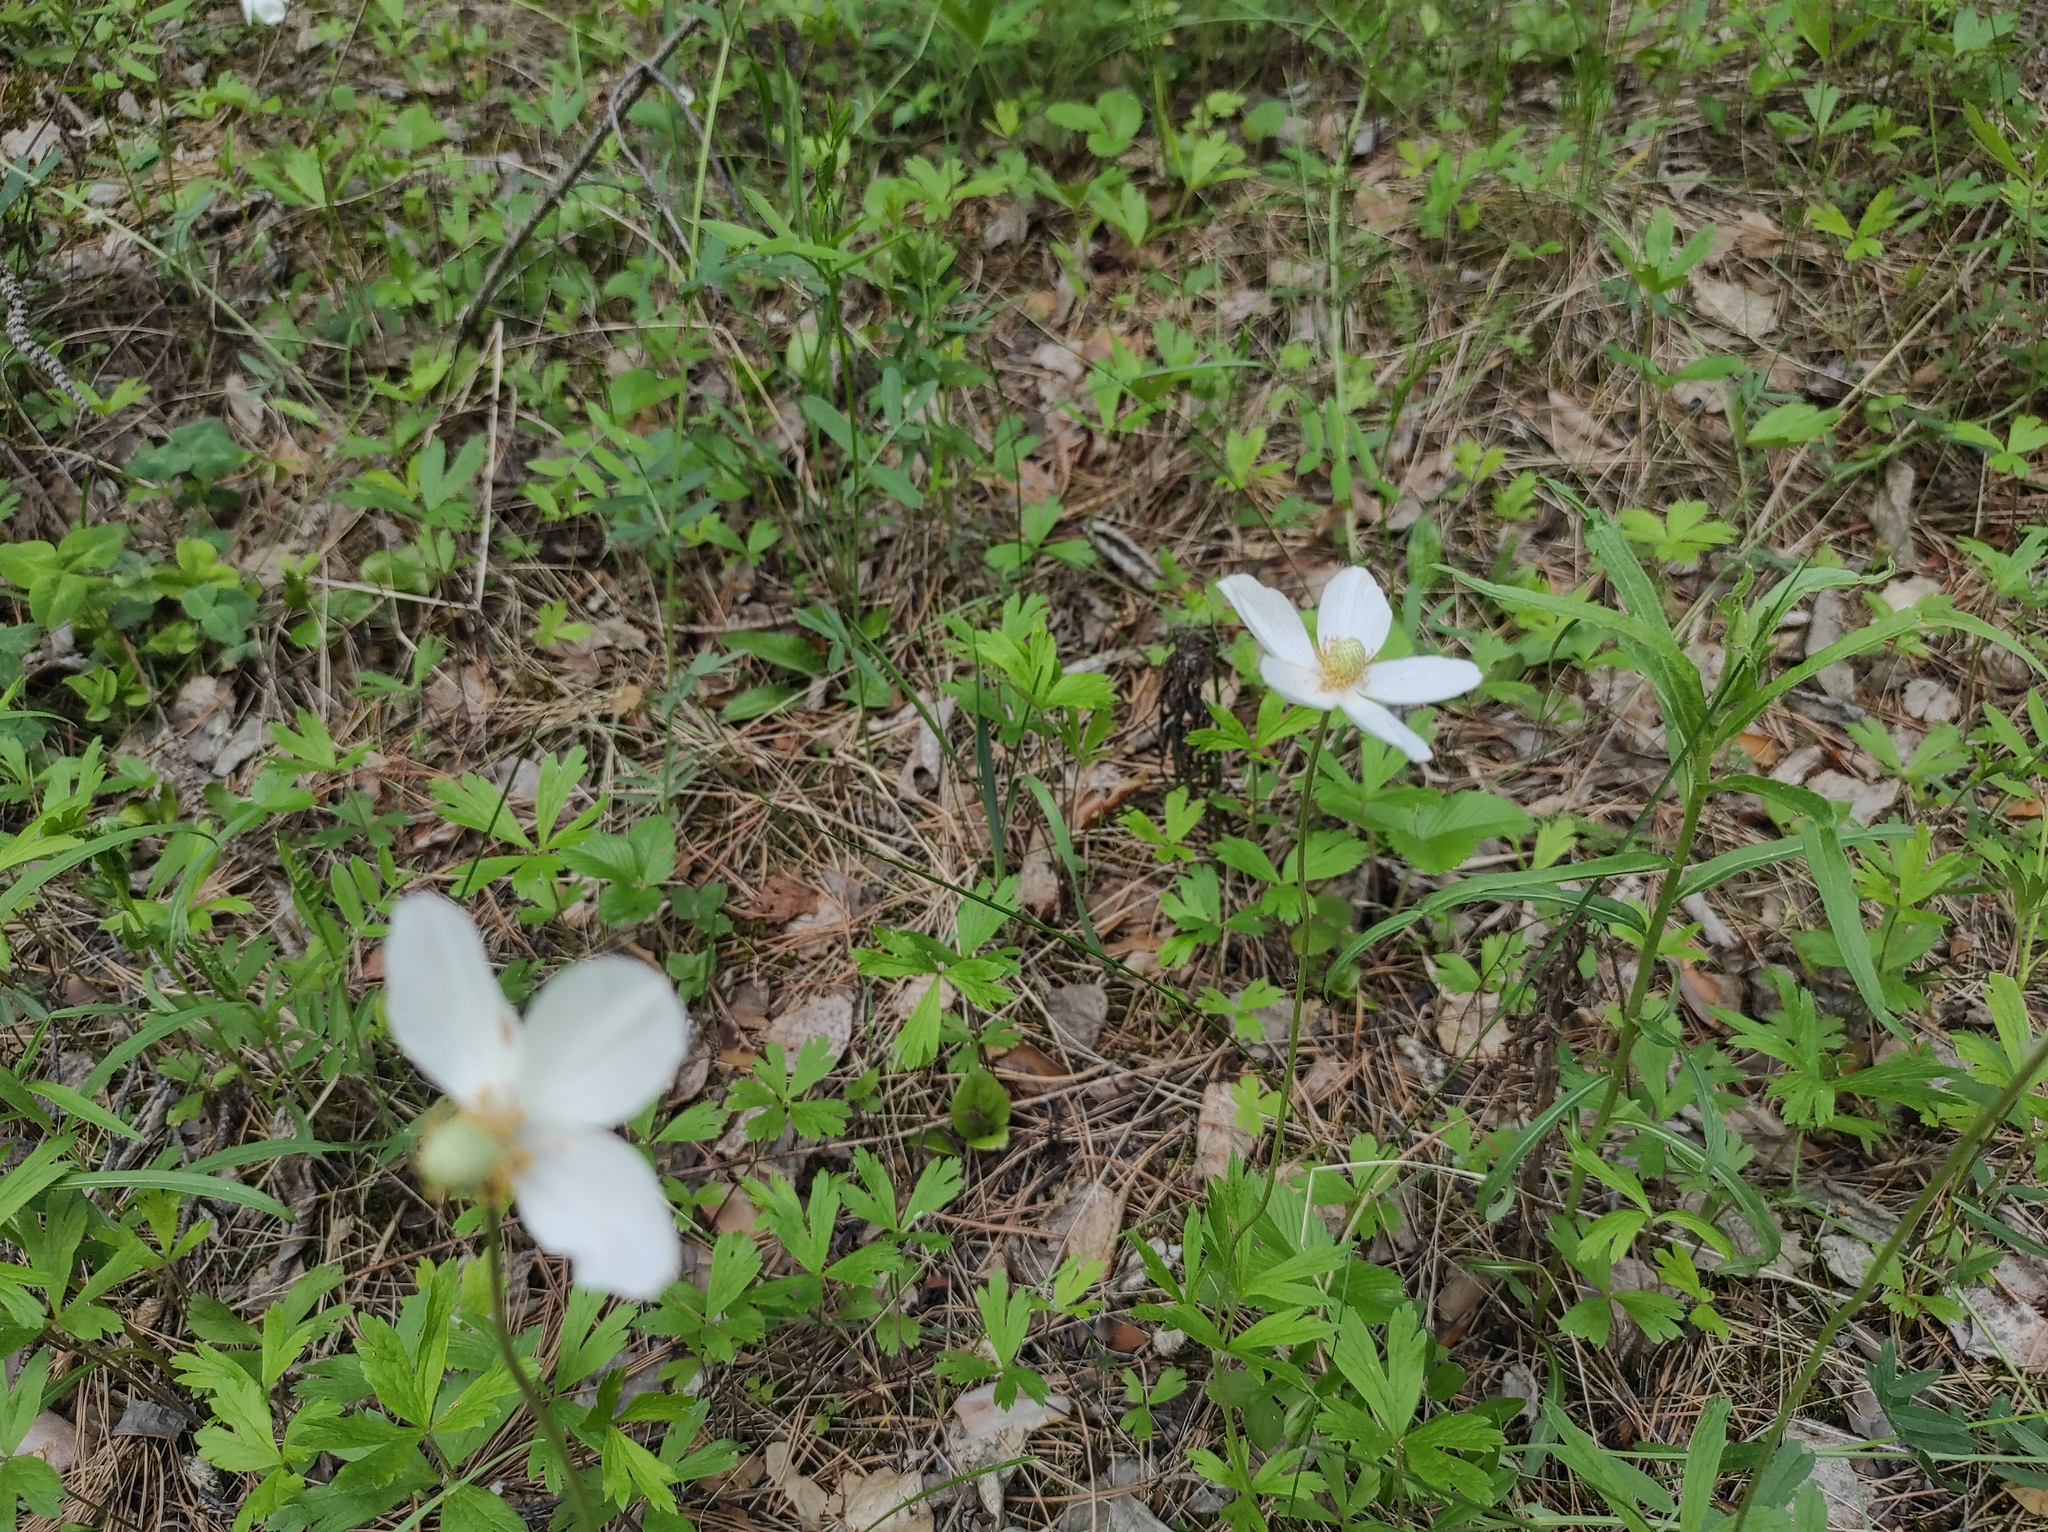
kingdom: Plantae
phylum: Tracheophyta
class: Magnoliopsida
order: Ranunculales
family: Ranunculaceae
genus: Anemone
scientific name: Anemone sylvestris
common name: Snowdrop anemone
